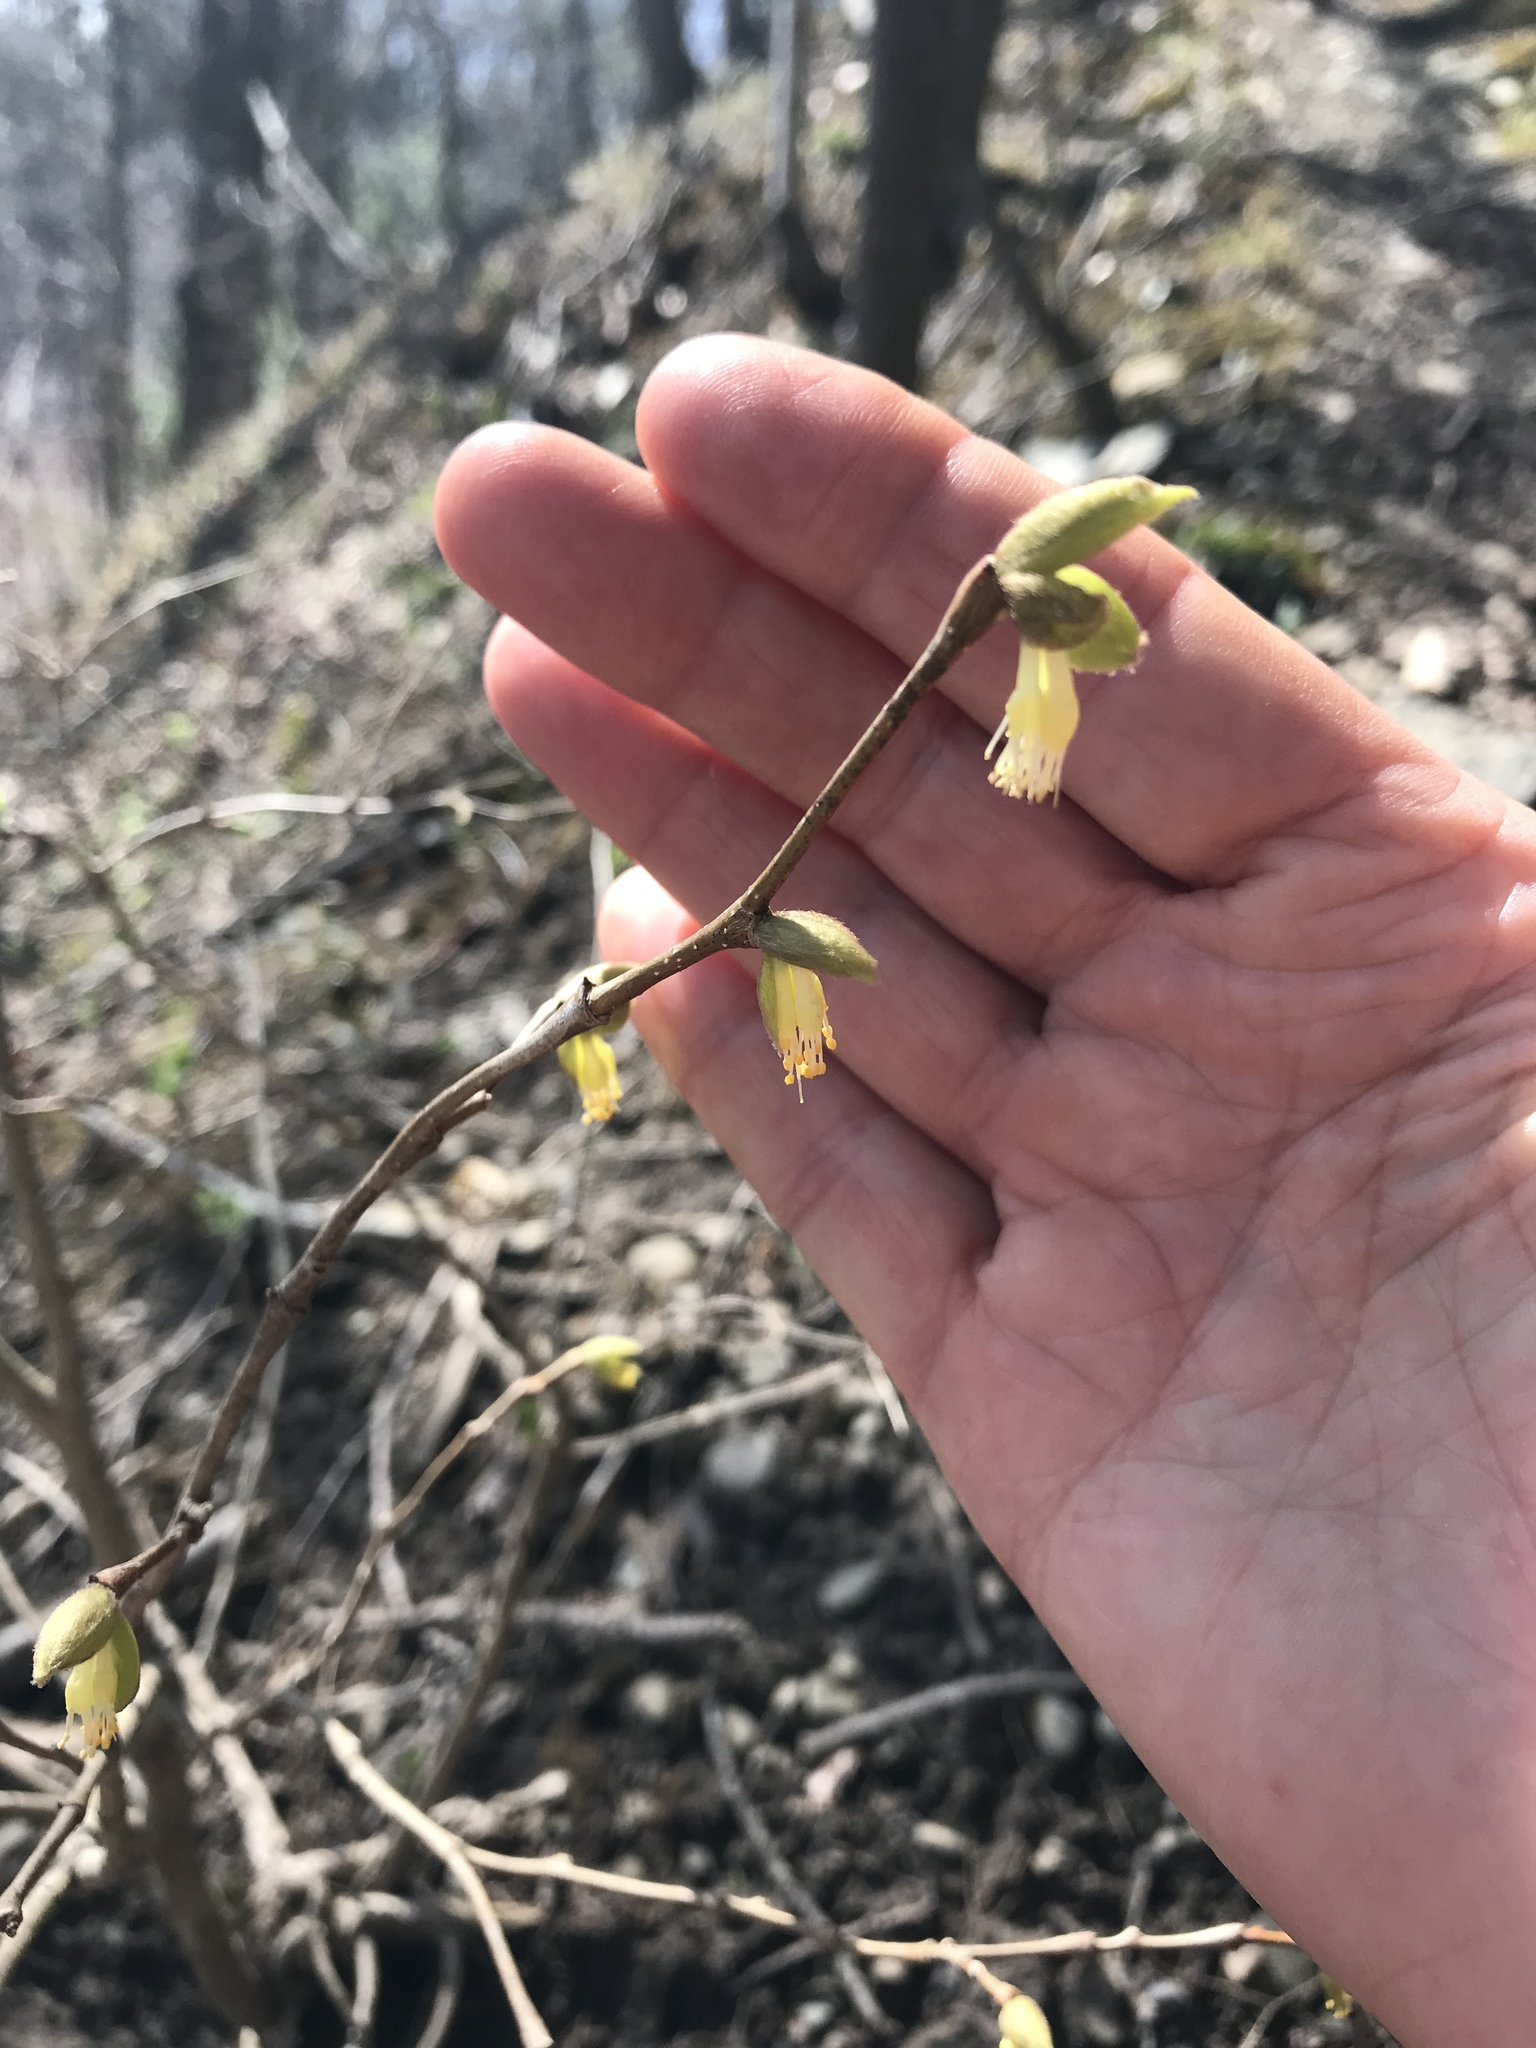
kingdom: Plantae
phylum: Tracheophyta
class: Magnoliopsida
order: Malvales
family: Thymelaeaceae
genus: Dirca
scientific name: Dirca palustris
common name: Leatherwood
